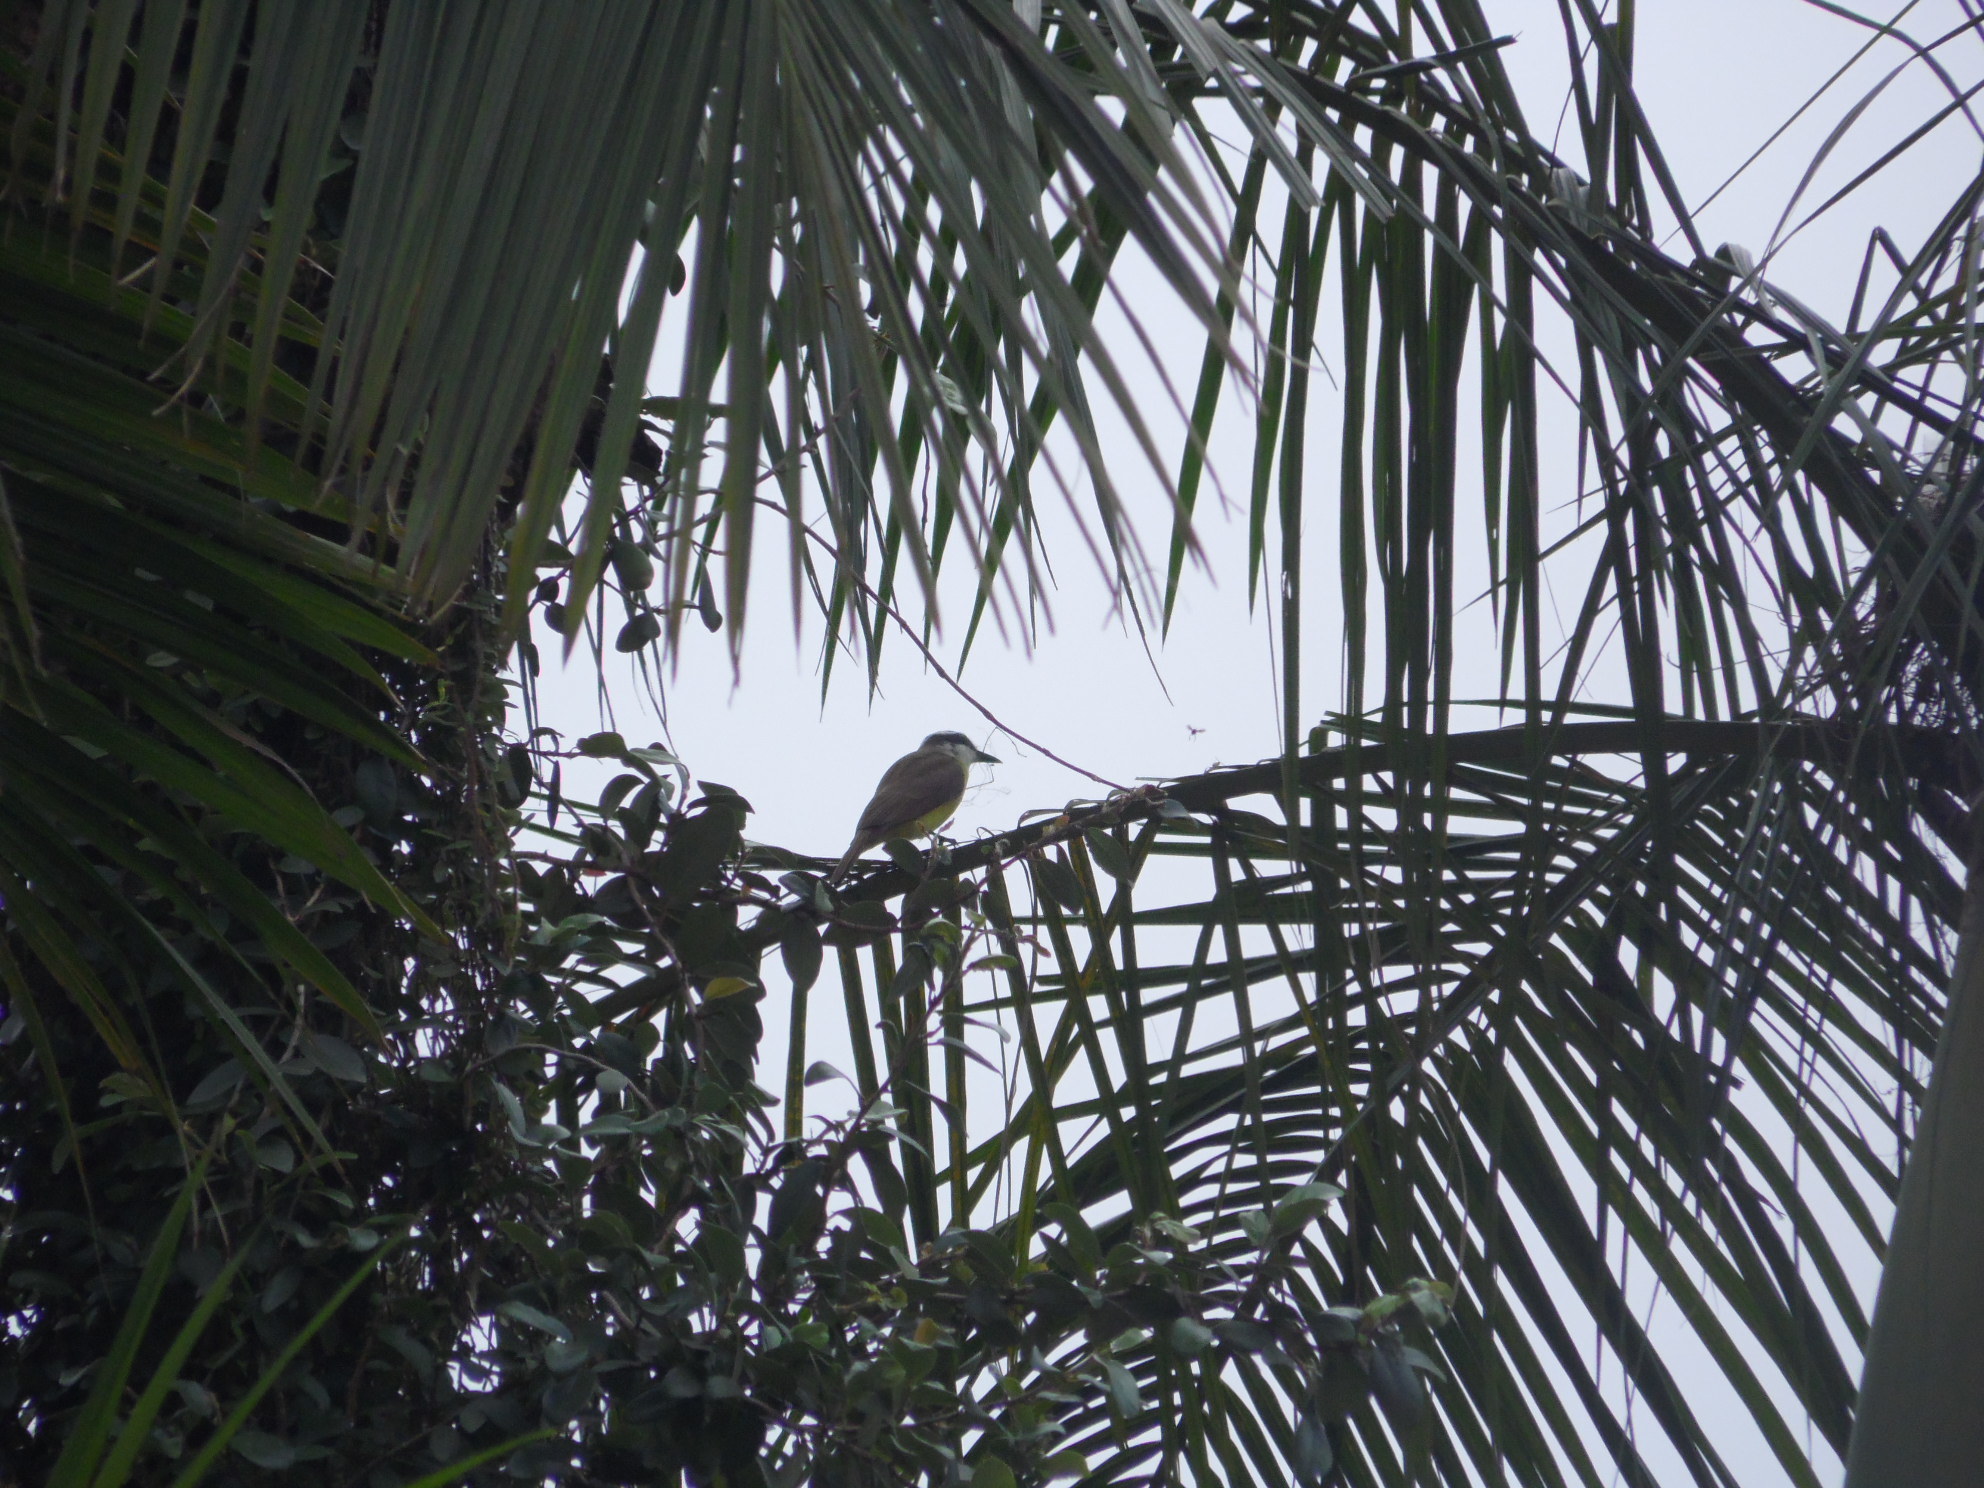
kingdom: Animalia
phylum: Chordata
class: Aves
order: Passeriformes
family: Tyrannidae
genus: Pitangus
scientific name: Pitangus sulphuratus
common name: Great kiskadee
